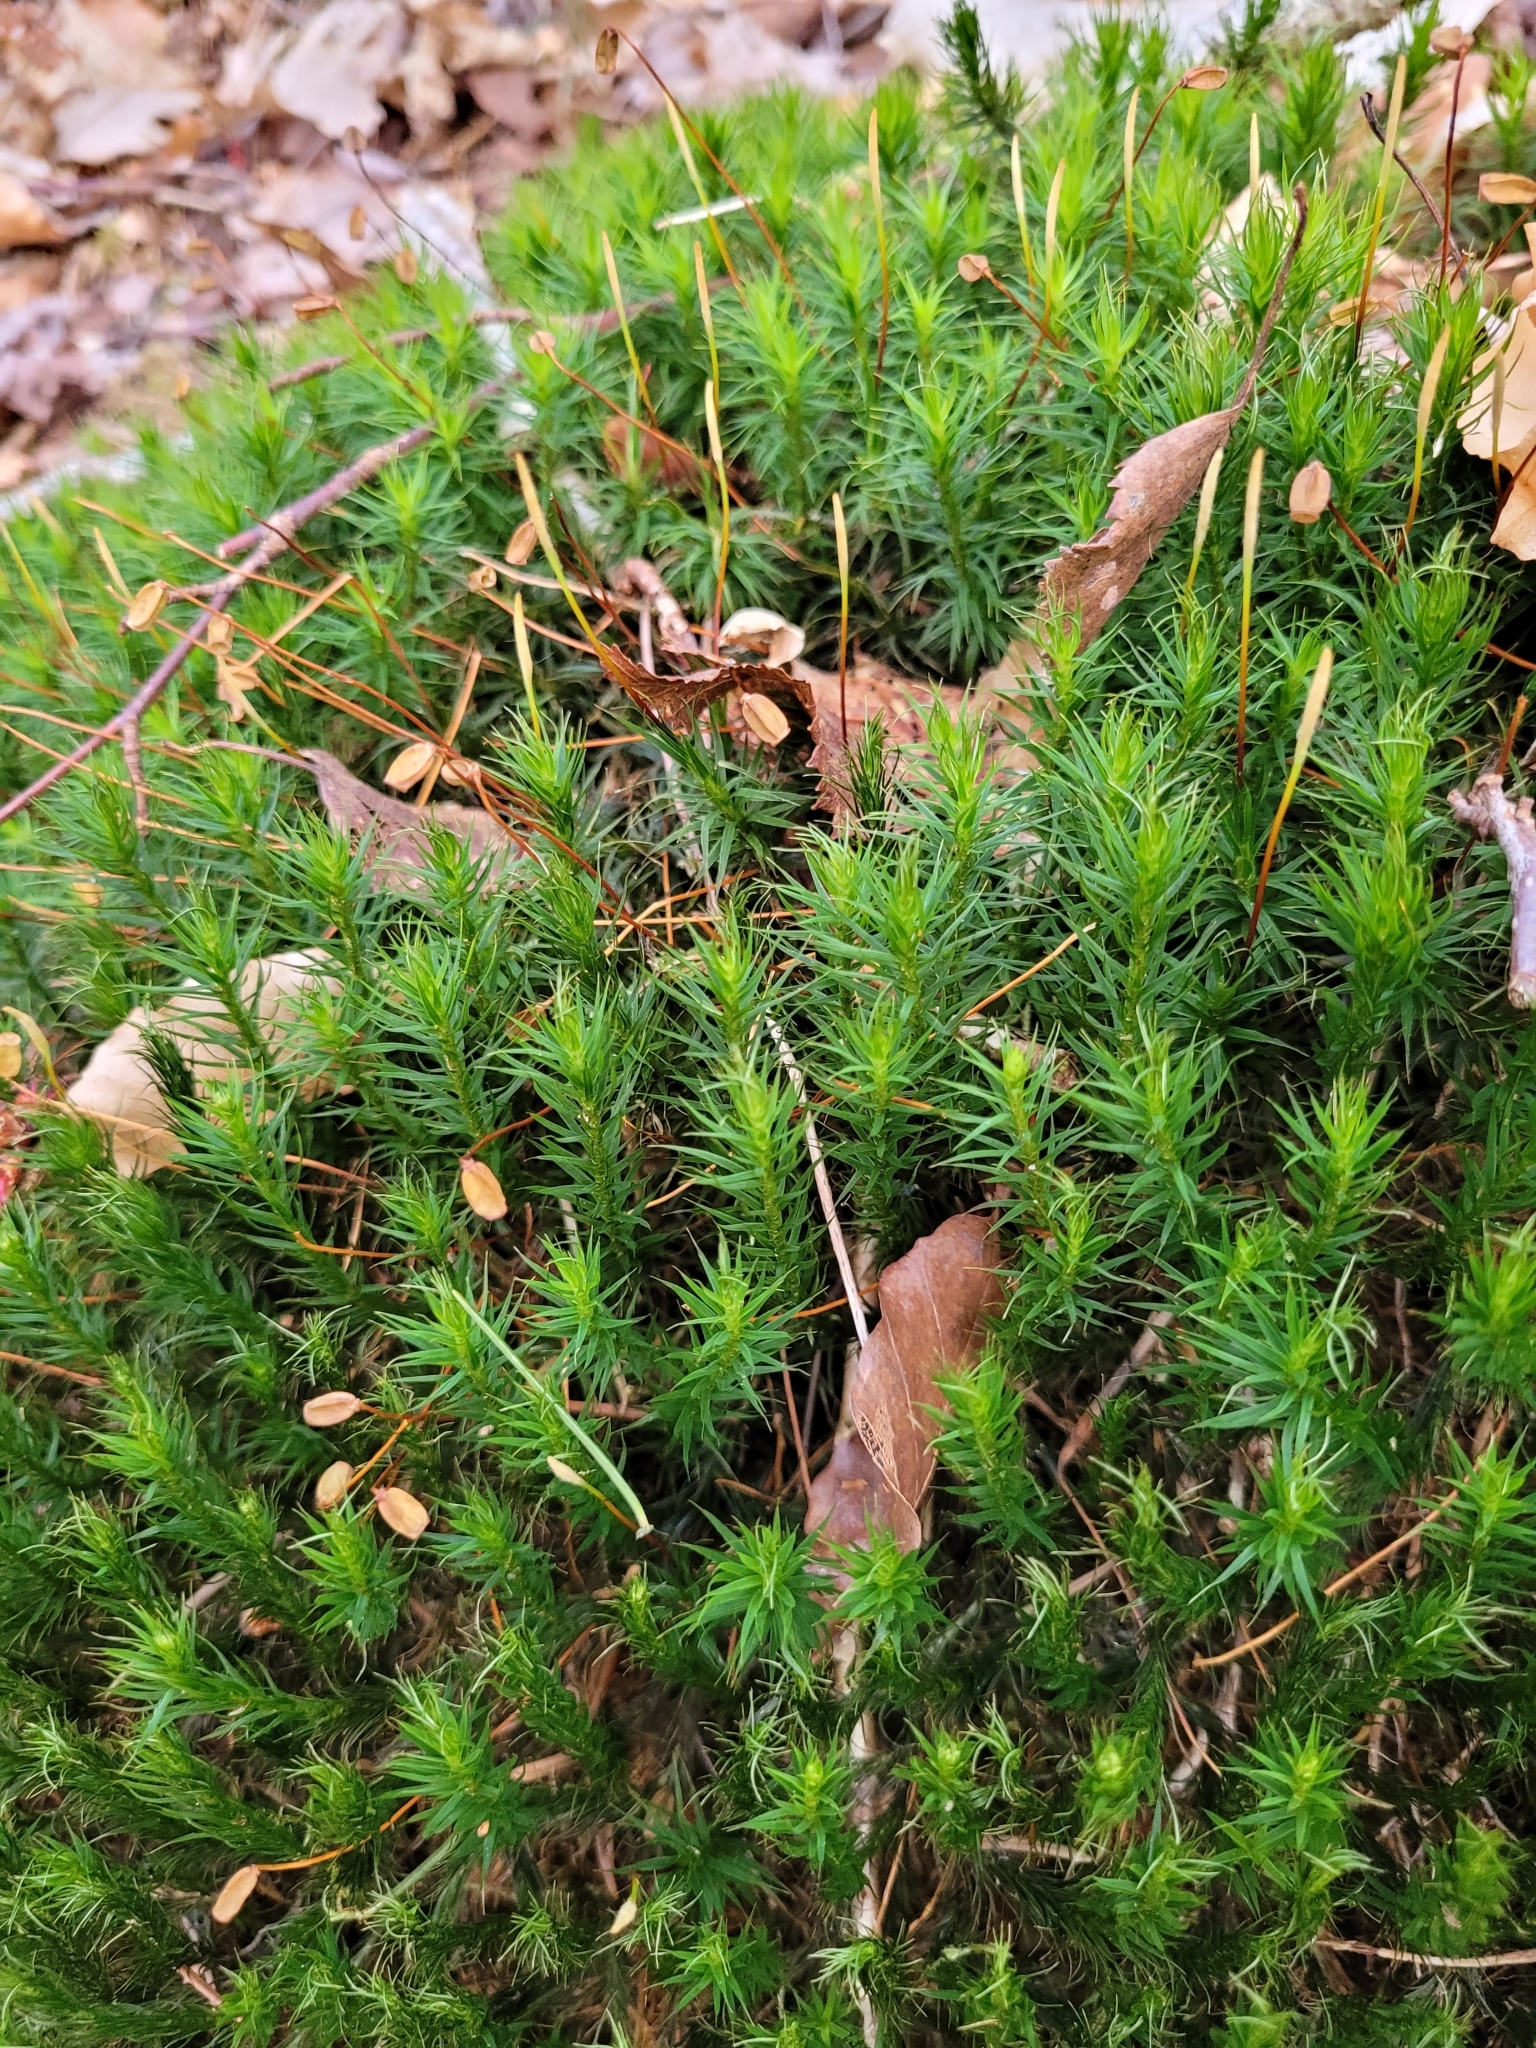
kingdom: Plantae
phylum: Bryophyta
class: Polytrichopsida
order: Polytrichales
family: Polytrichaceae
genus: Polytrichum
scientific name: Polytrichum formosum
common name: Bank haircap moss
